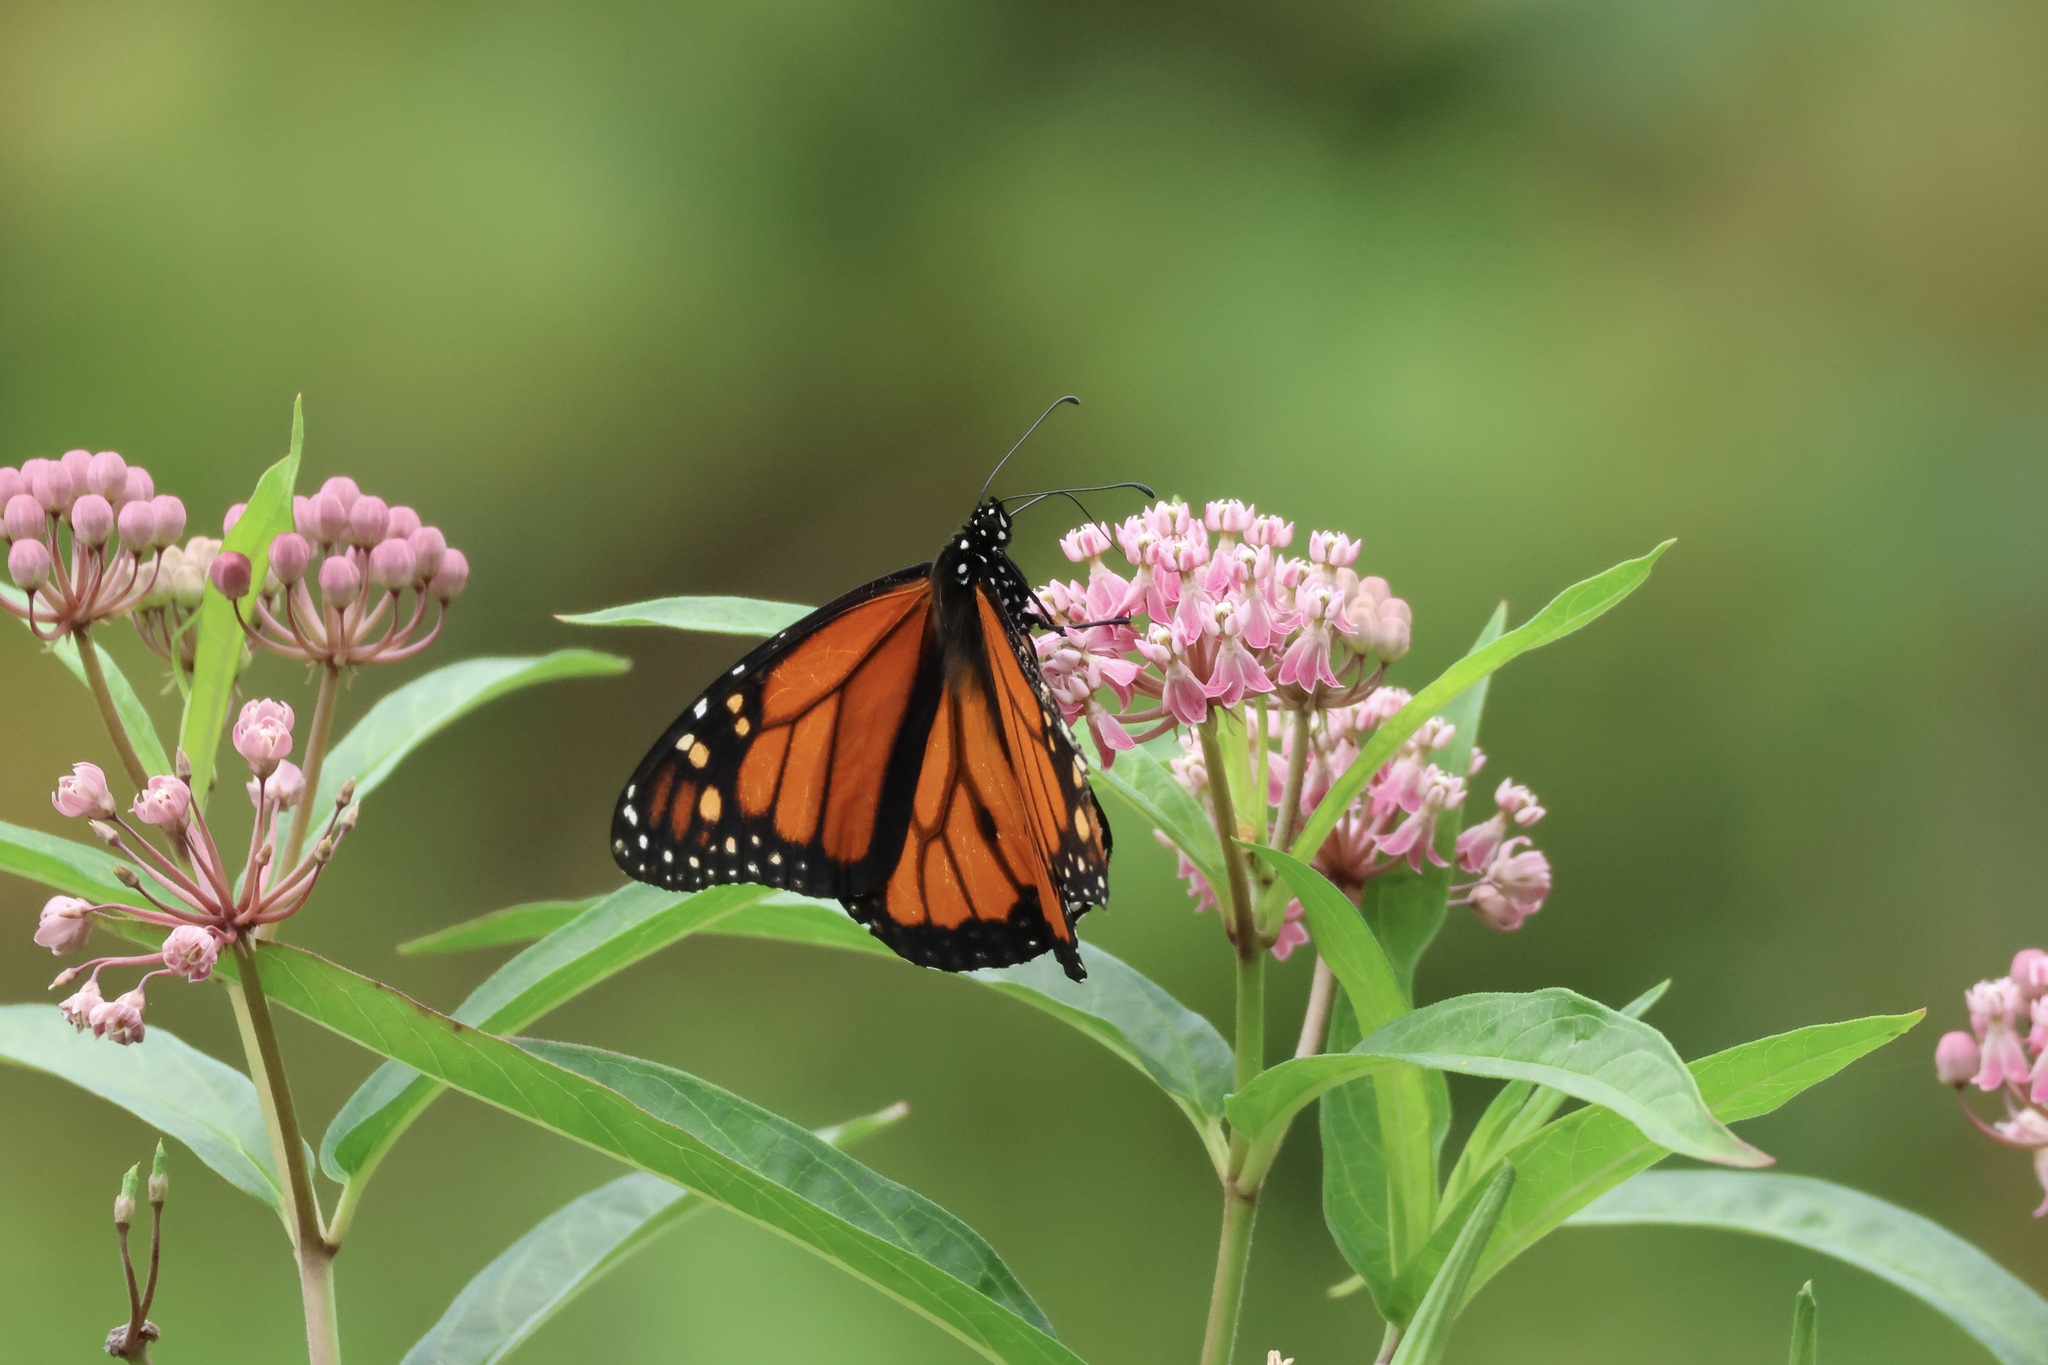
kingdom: Animalia
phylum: Arthropoda
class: Insecta
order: Lepidoptera
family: Nymphalidae
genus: Danaus
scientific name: Danaus plexippus
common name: Monarch
